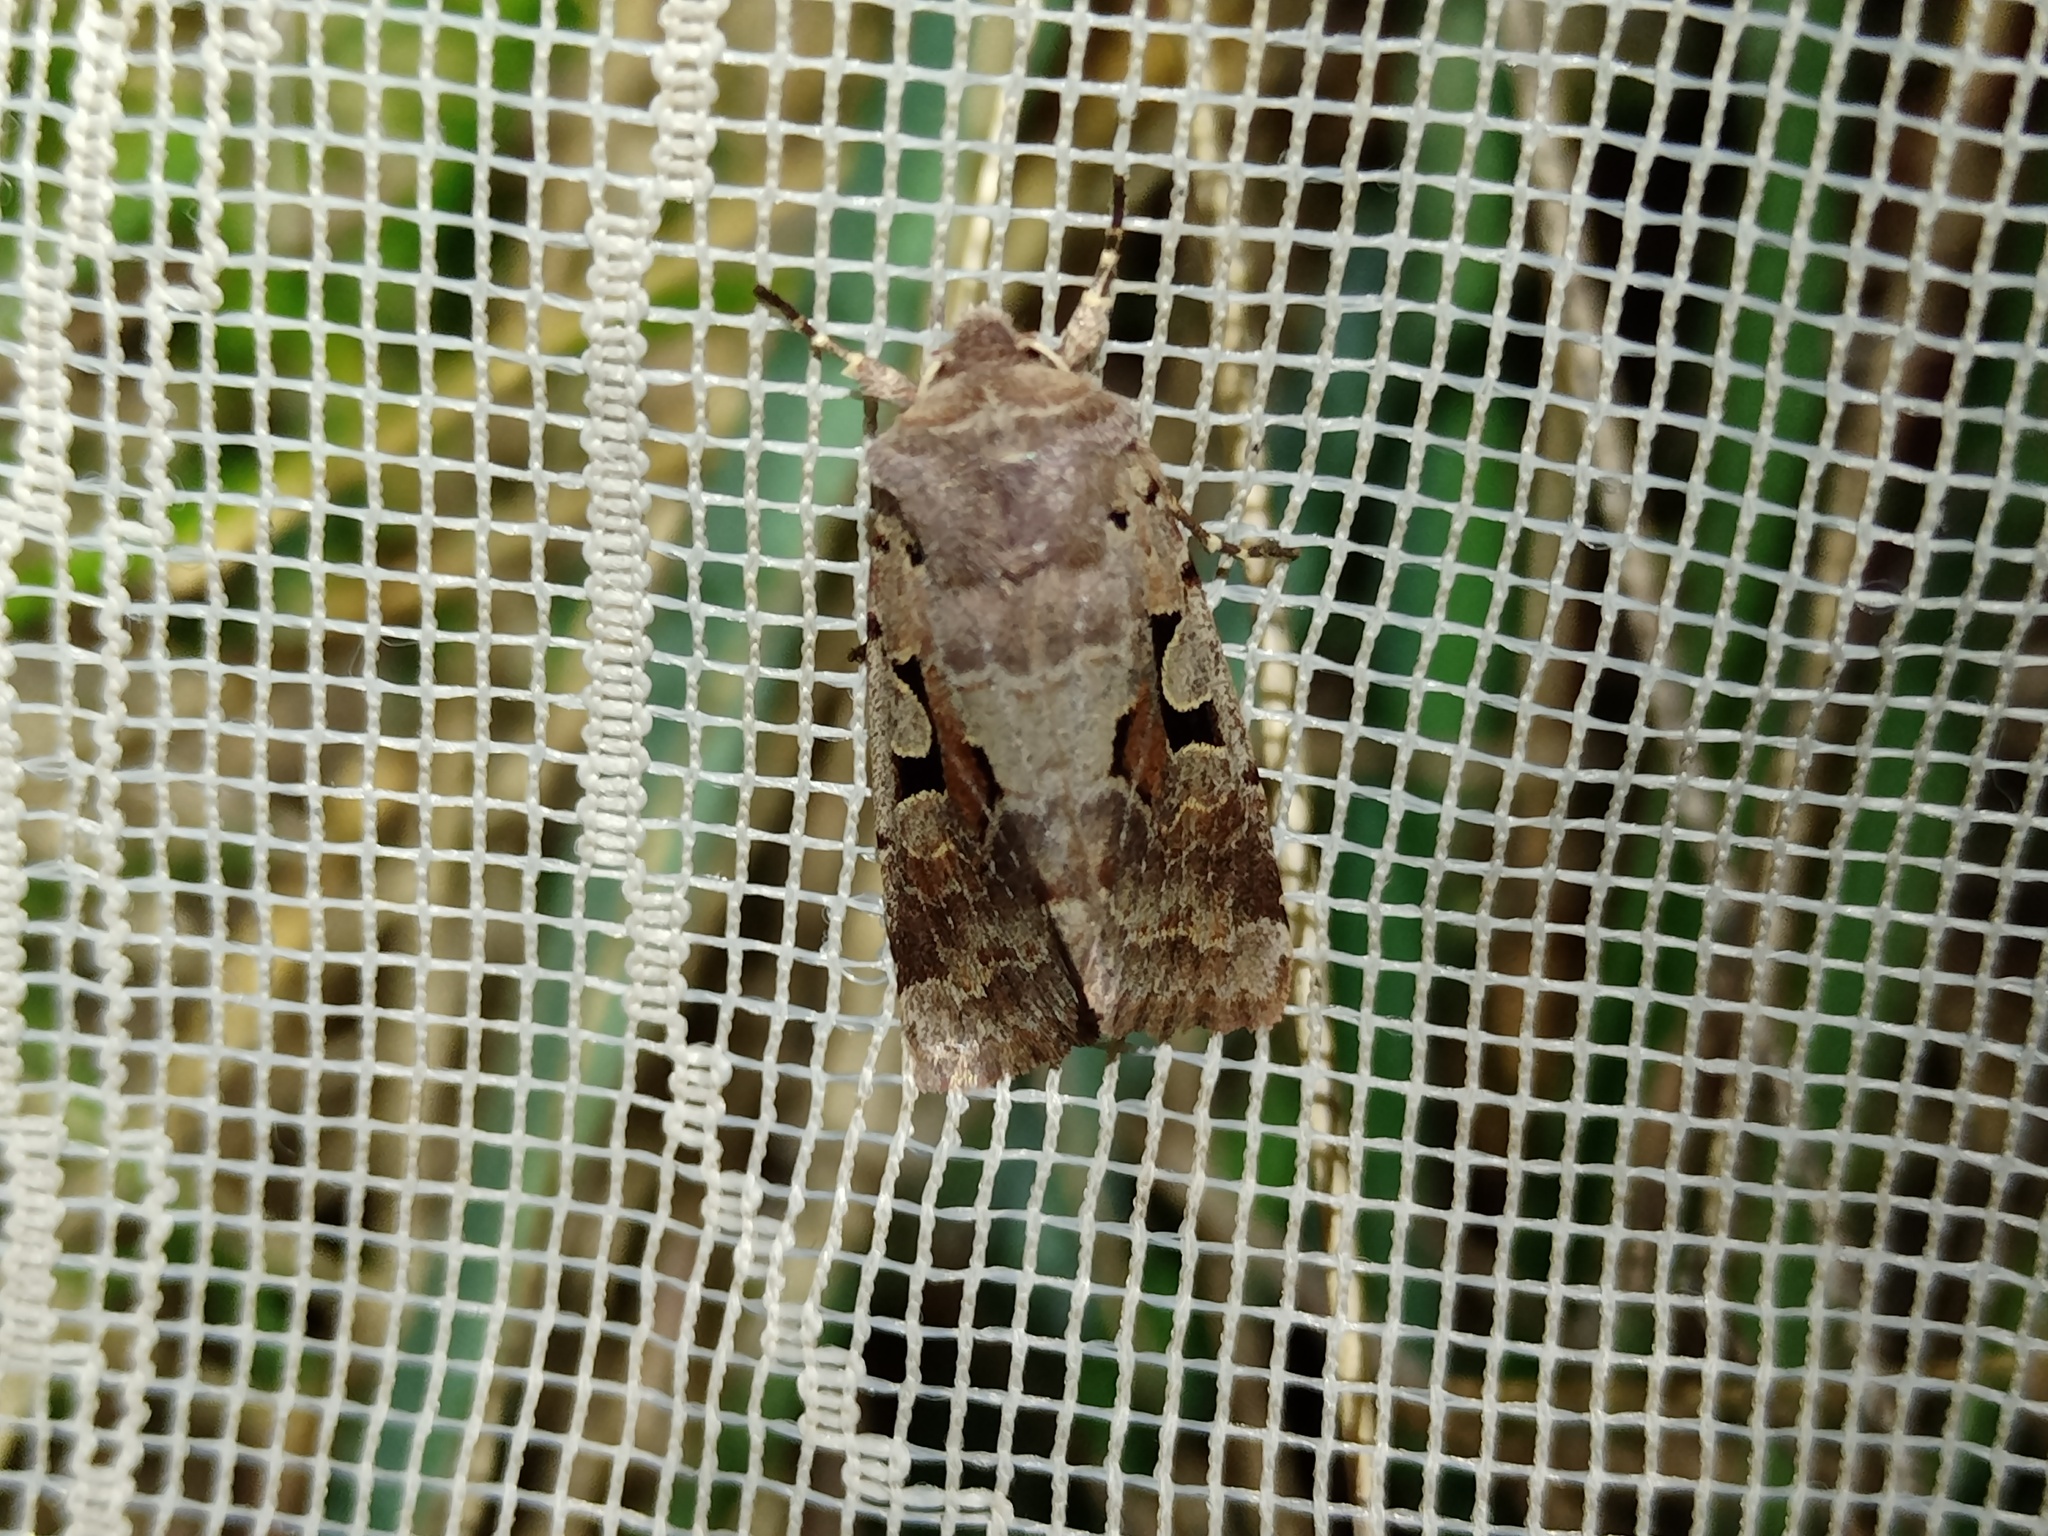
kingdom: Animalia
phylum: Arthropoda
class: Insecta
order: Lepidoptera
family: Noctuidae
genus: Orthosia
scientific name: Orthosia gothica
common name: Hebrew character
